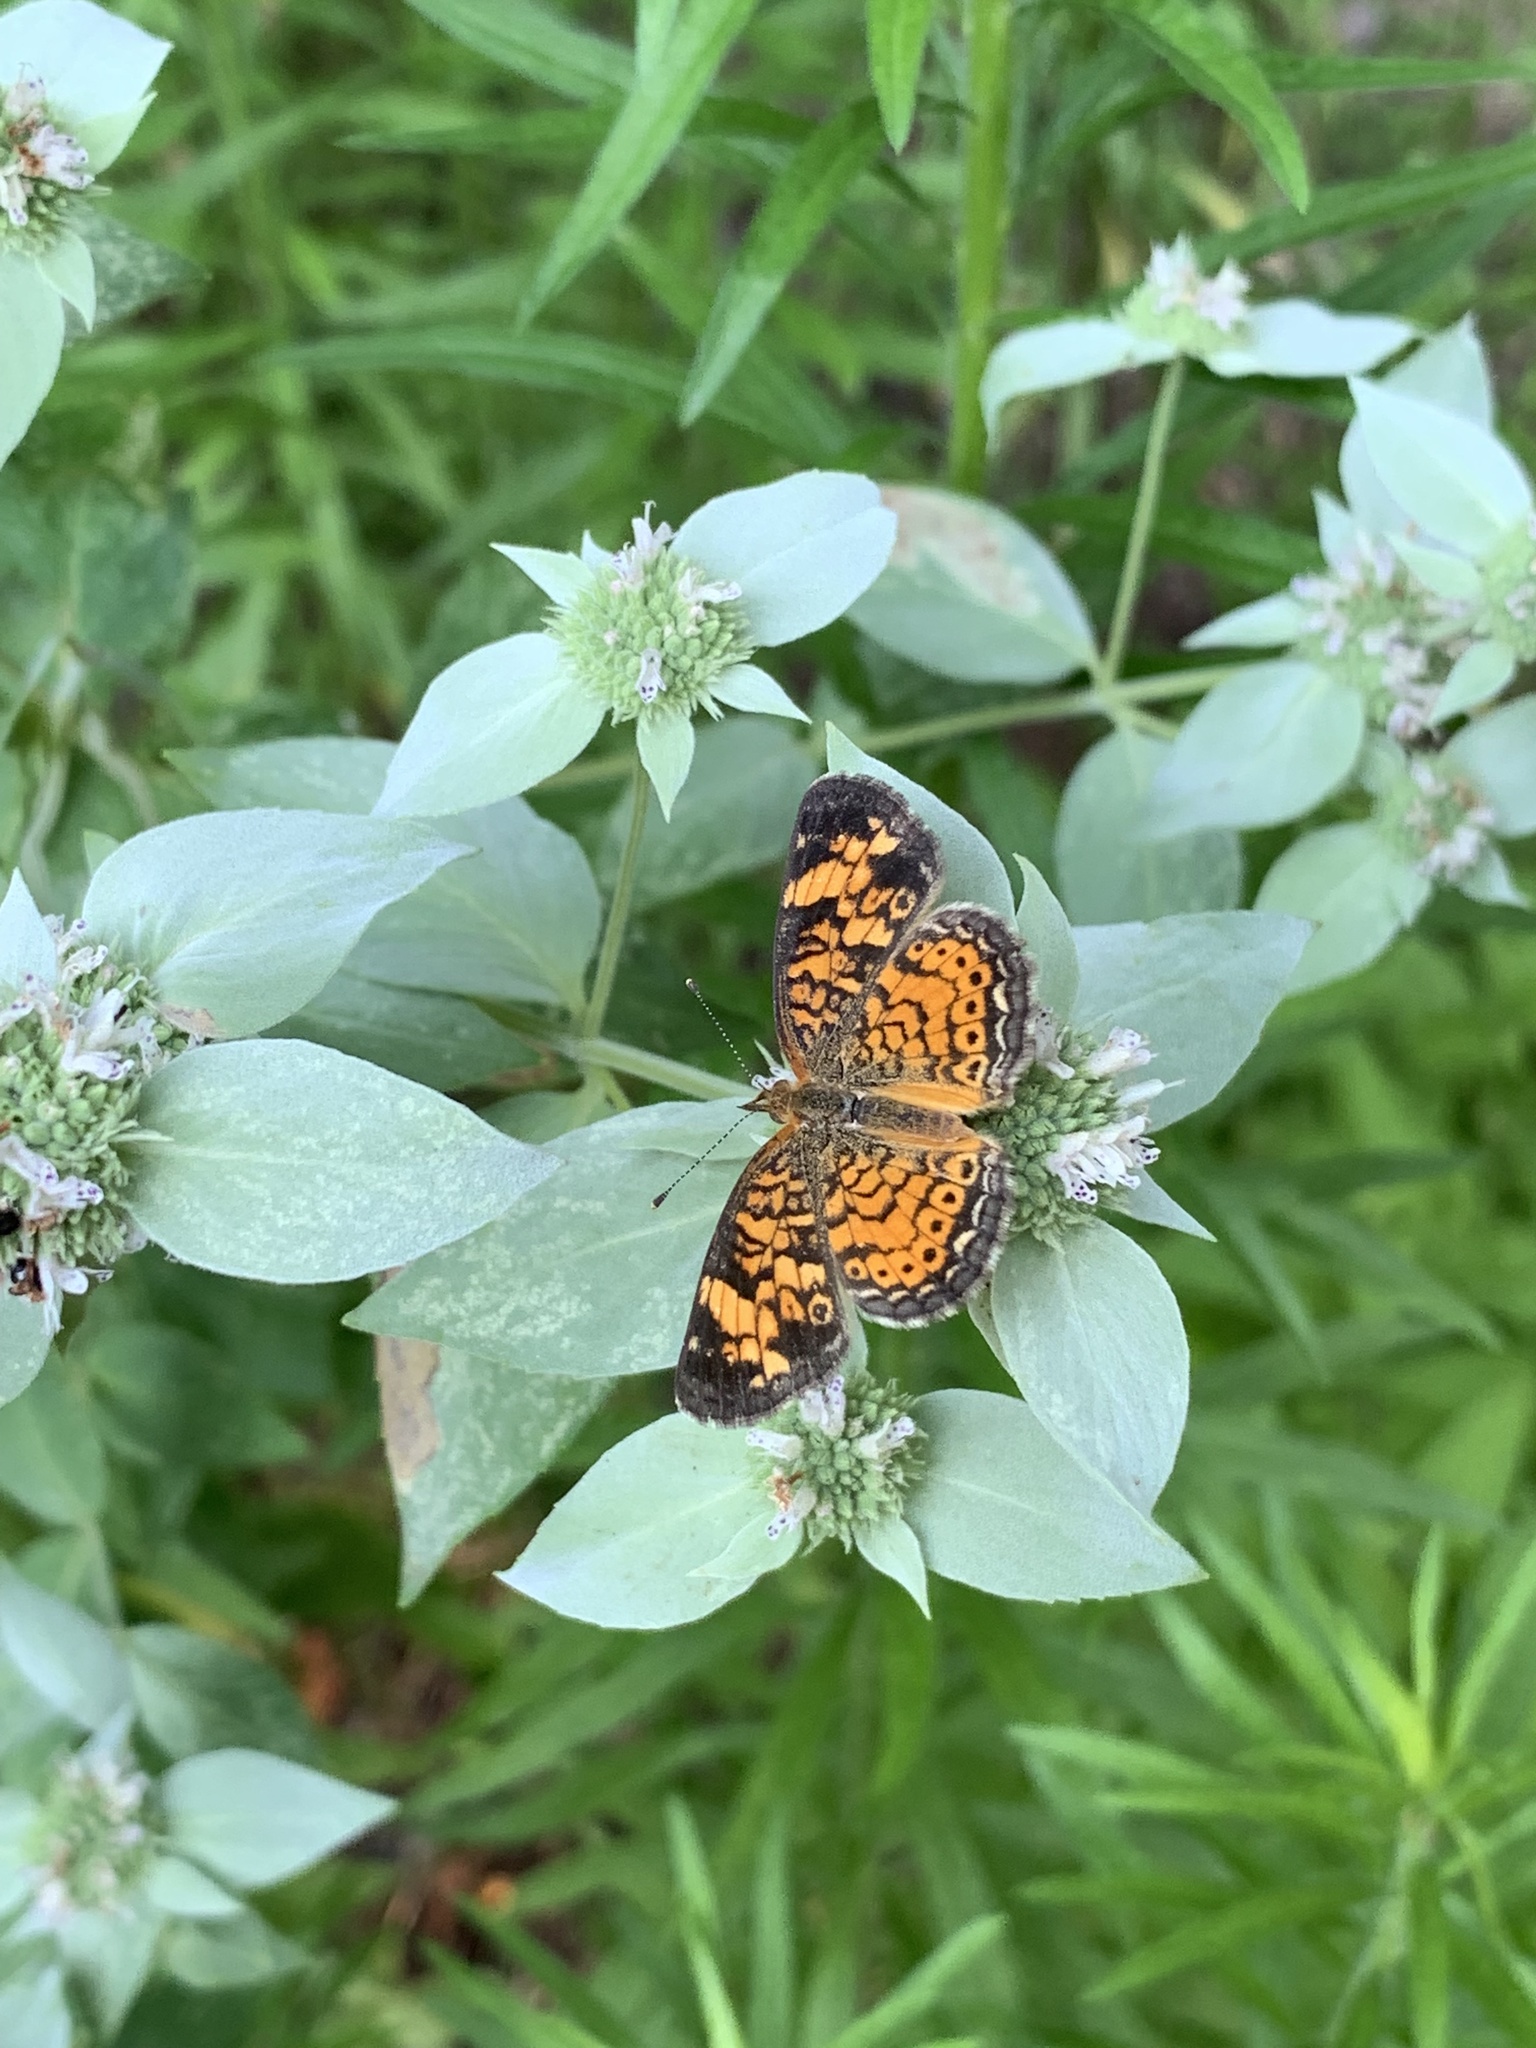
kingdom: Animalia
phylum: Arthropoda
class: Insecta
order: Lepidoptera
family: Nymphalidae
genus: Phyciodes
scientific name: Phyciodes tharos
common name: Pearl crescent
